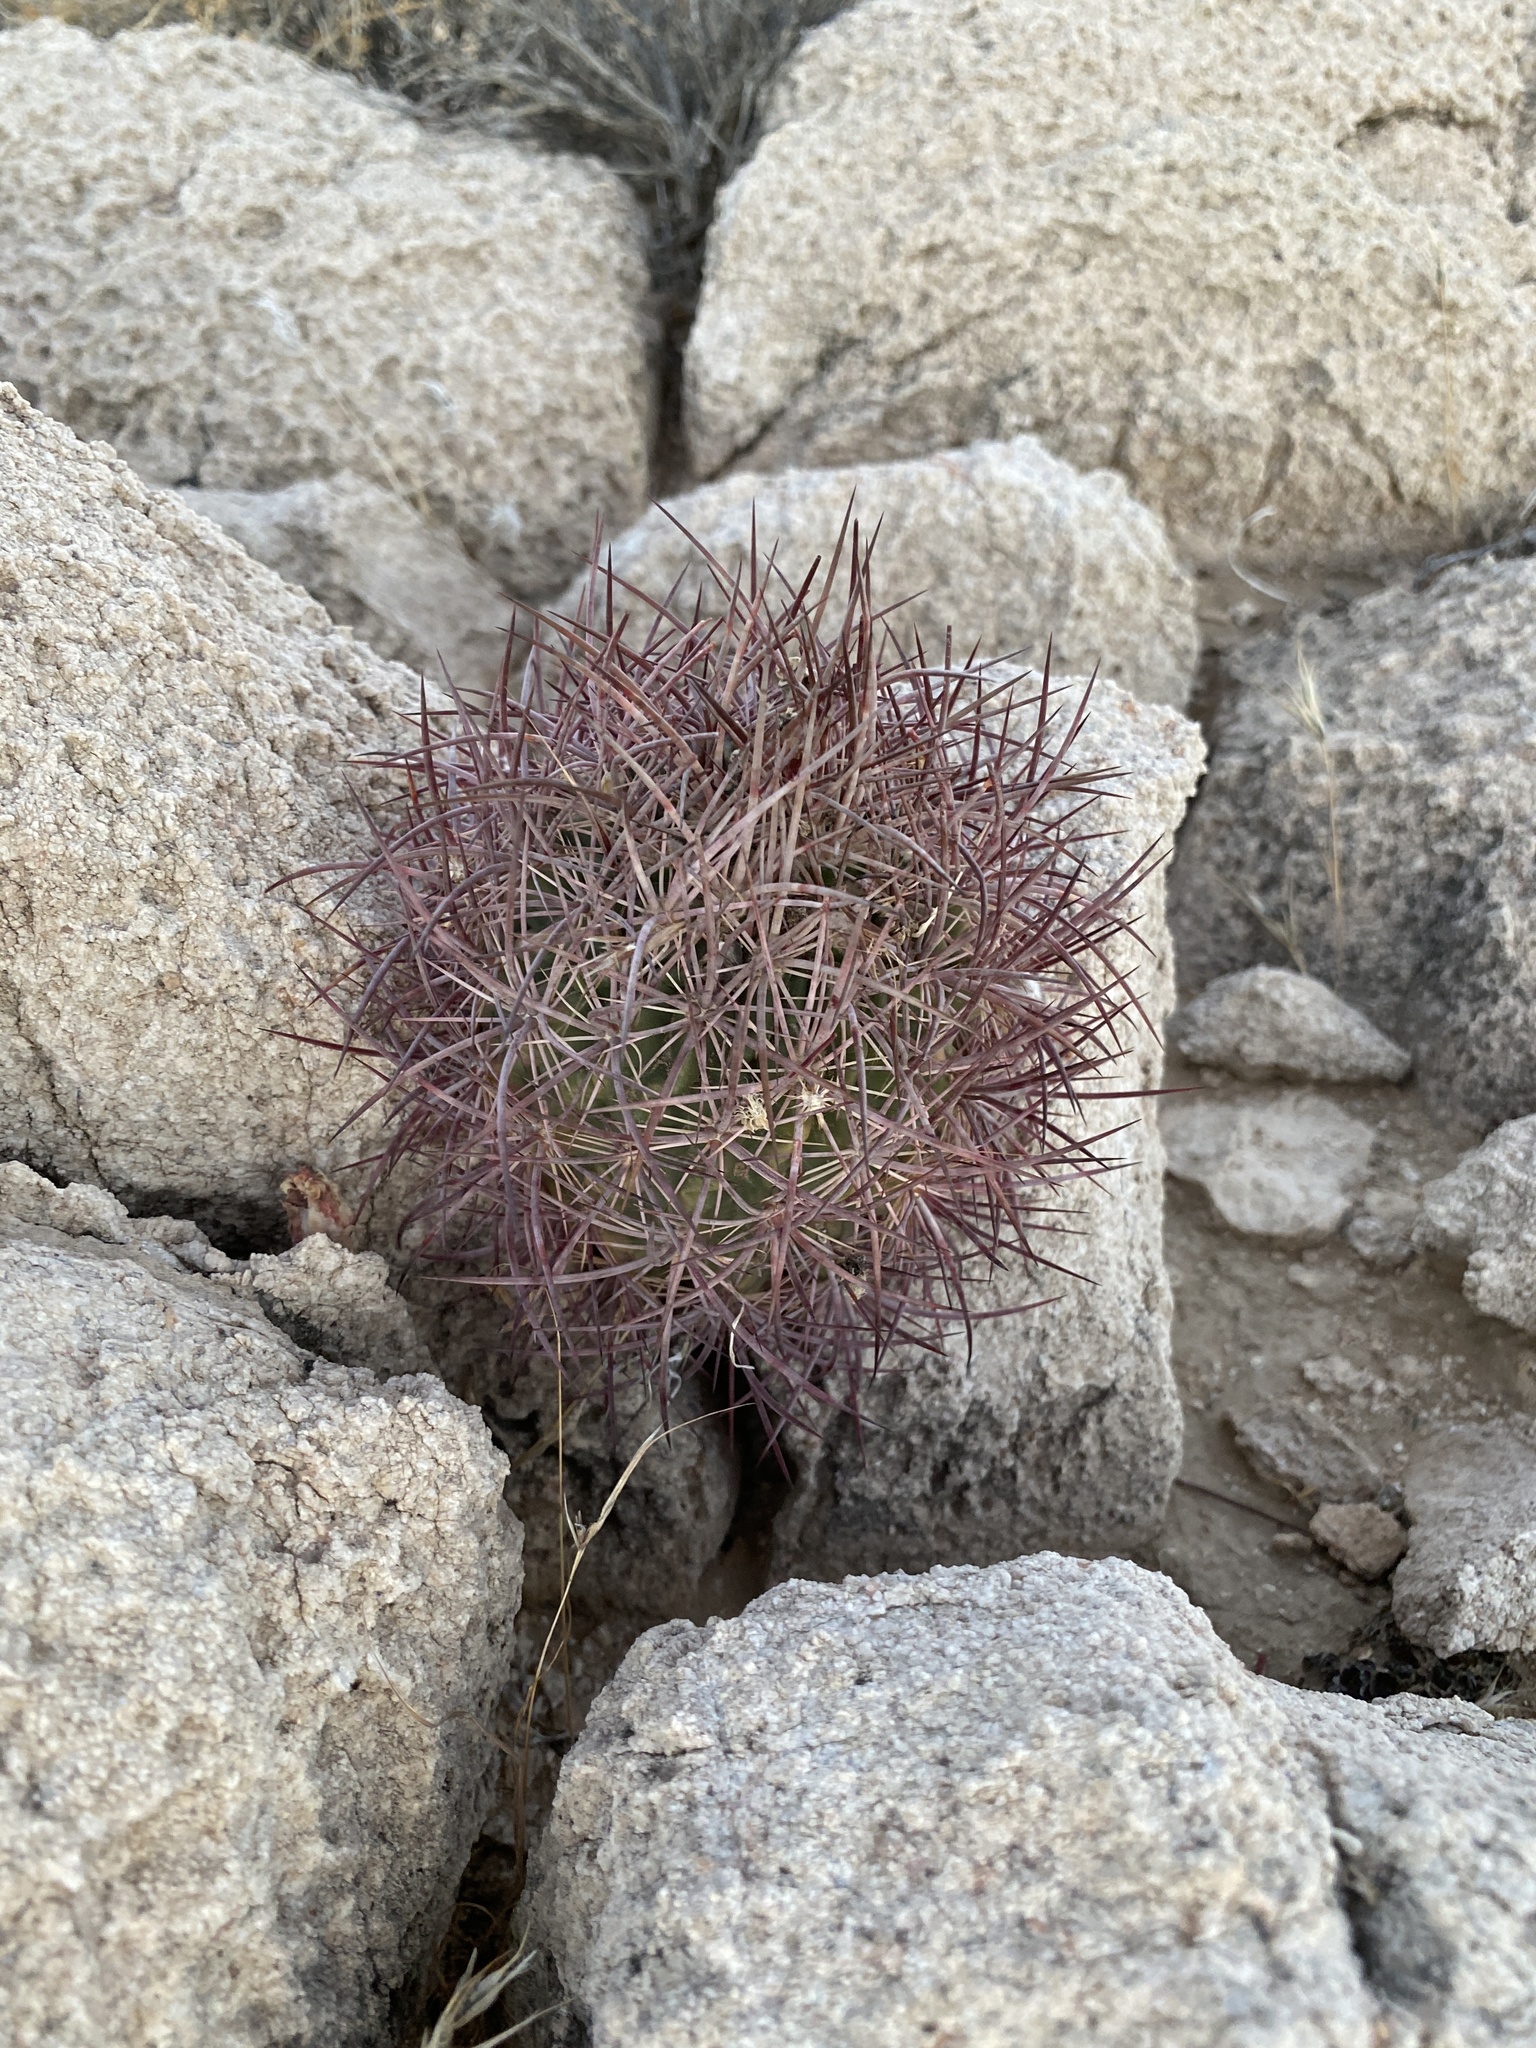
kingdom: Plantae
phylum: Tracheophyta
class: Magnoliopsida
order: Caryophyllales
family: Cactaceae
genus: Sclerocactus
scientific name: Sclerocactus johnsonii
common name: Eight-spine fishhook cactus
